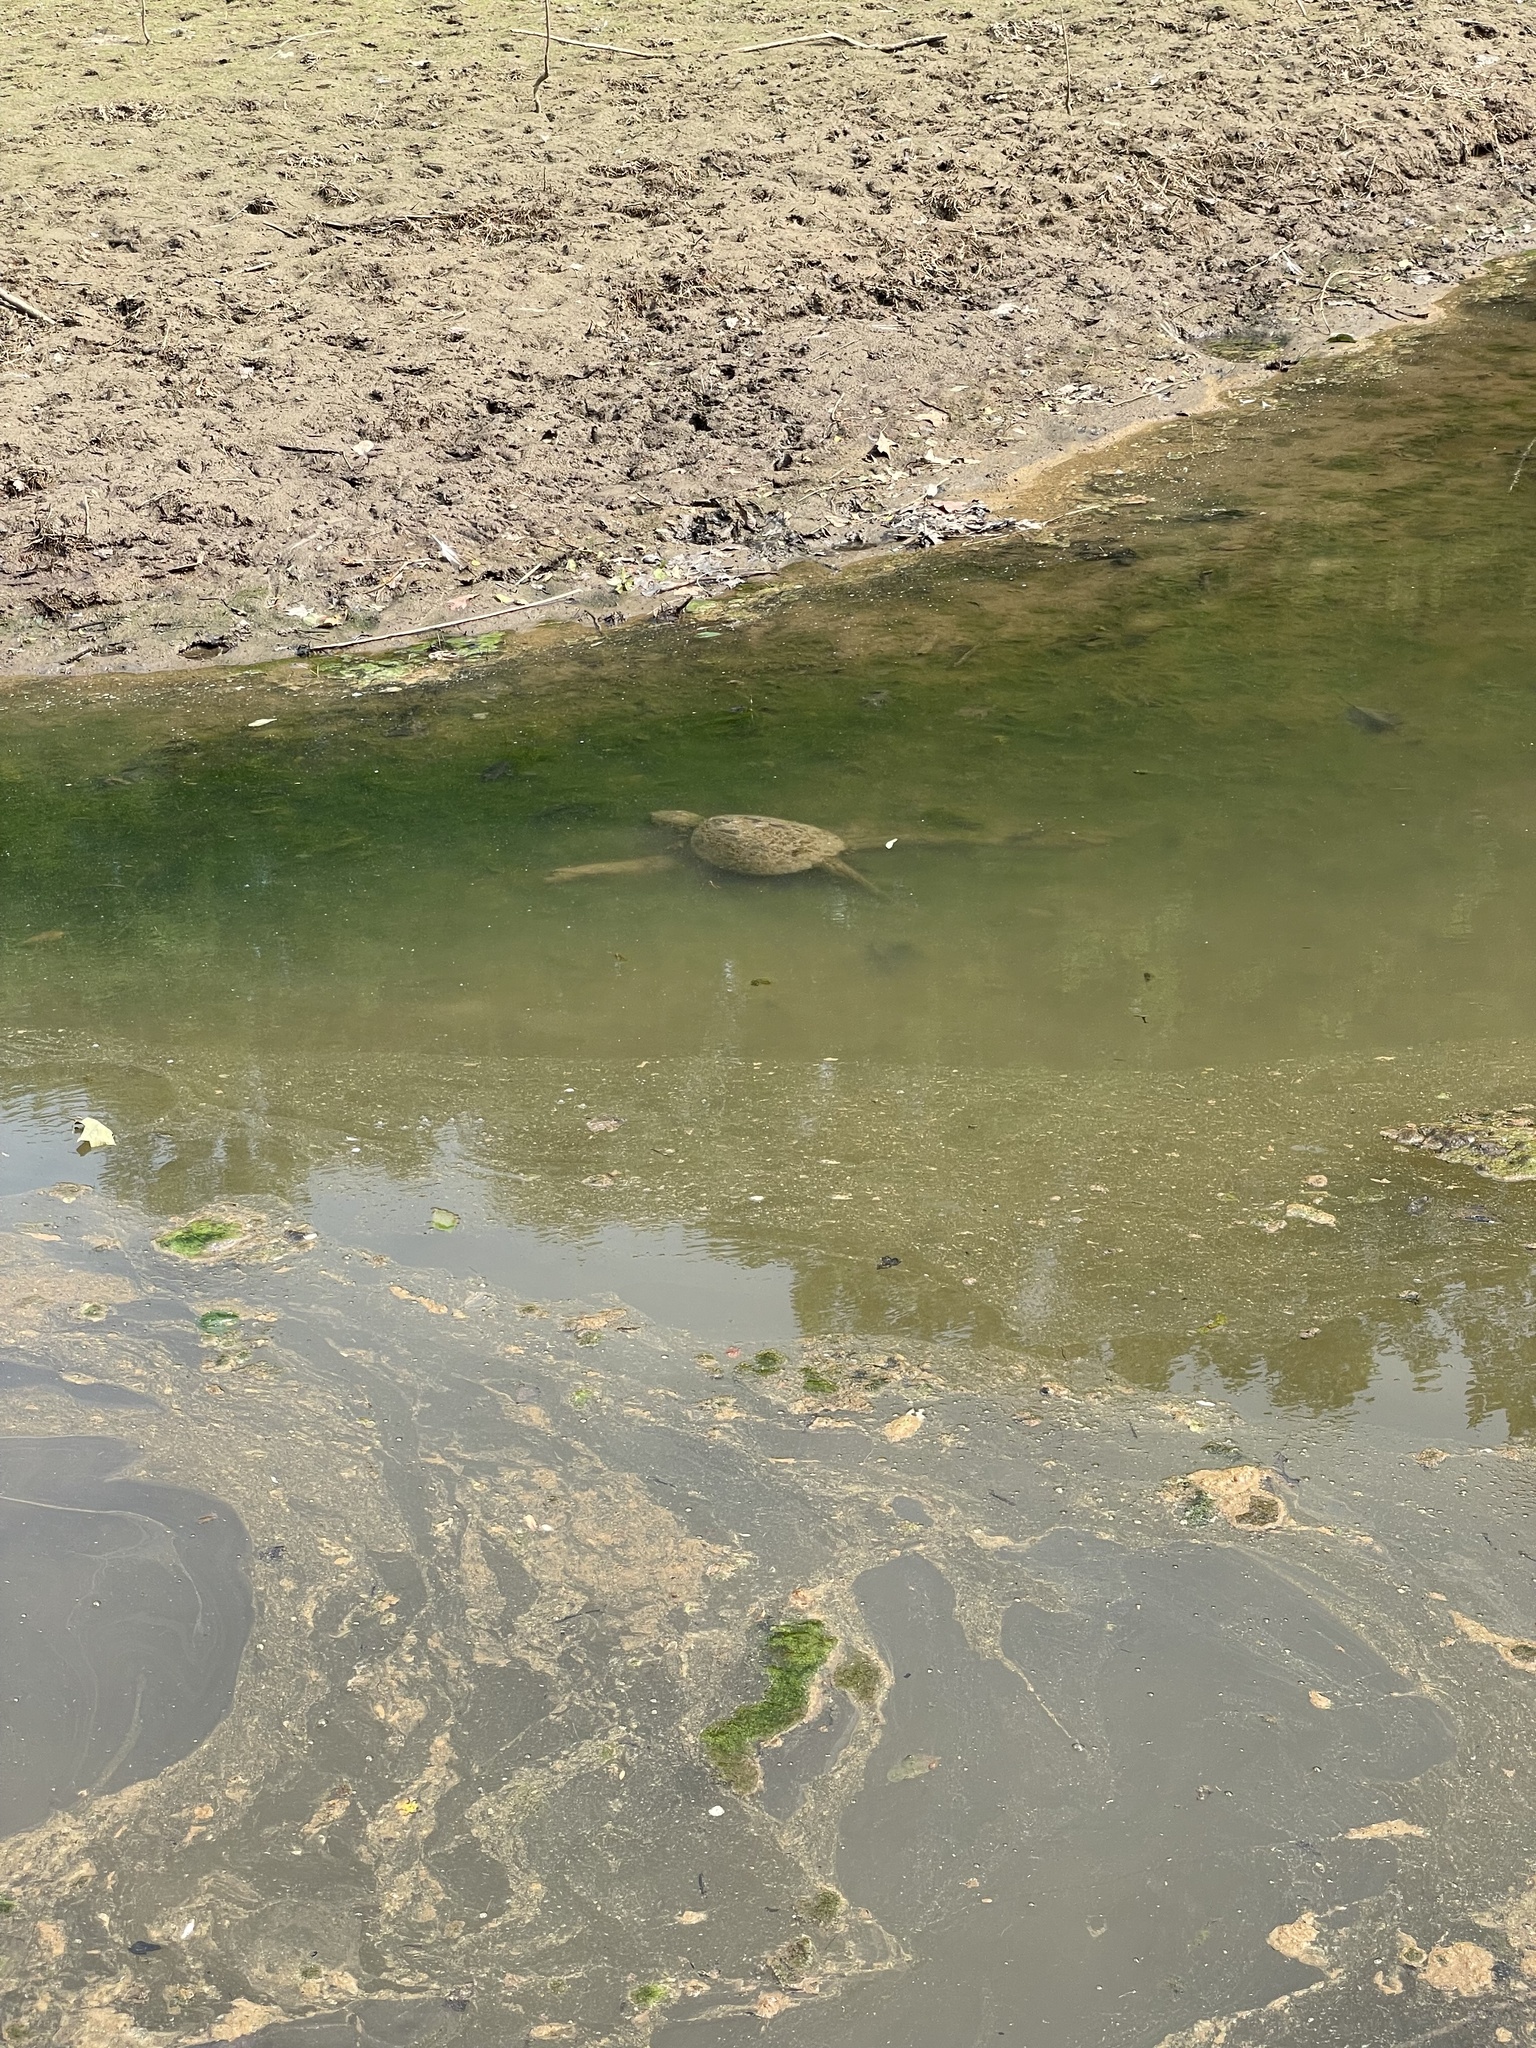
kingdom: Animalia
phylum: Chordata
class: Testudines
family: Chelydridae
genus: Chelydra
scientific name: Chelydra serpentina
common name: Common snapping turtle
